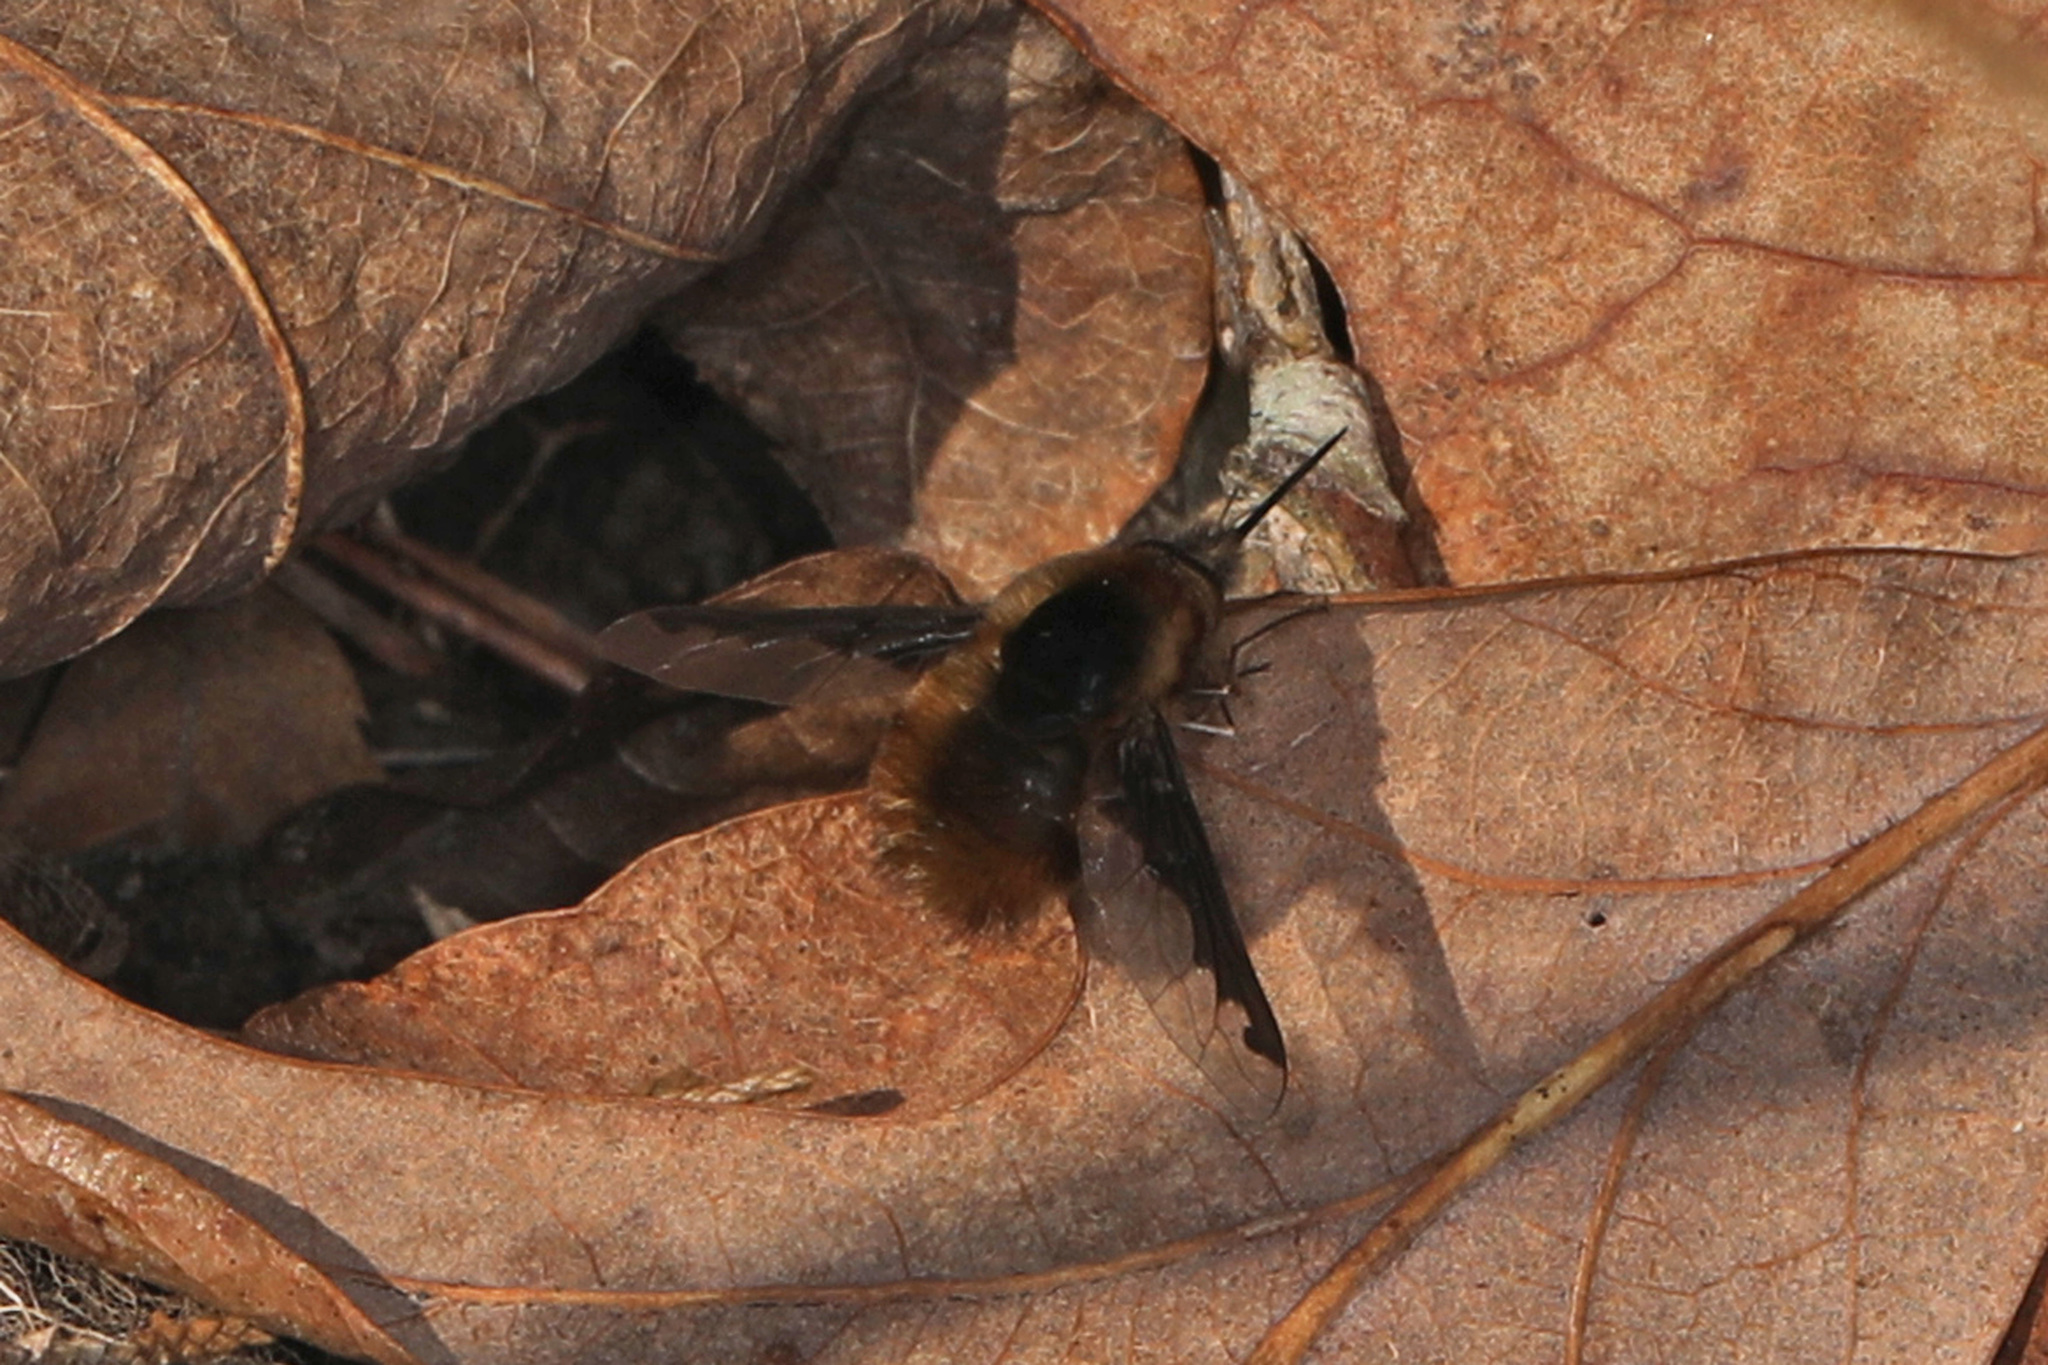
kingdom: Animalia
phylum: Arthropoda
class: Insecta
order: Diptera
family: Bombyliidae
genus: Bombylius
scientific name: Bombylius major
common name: Bee fly
